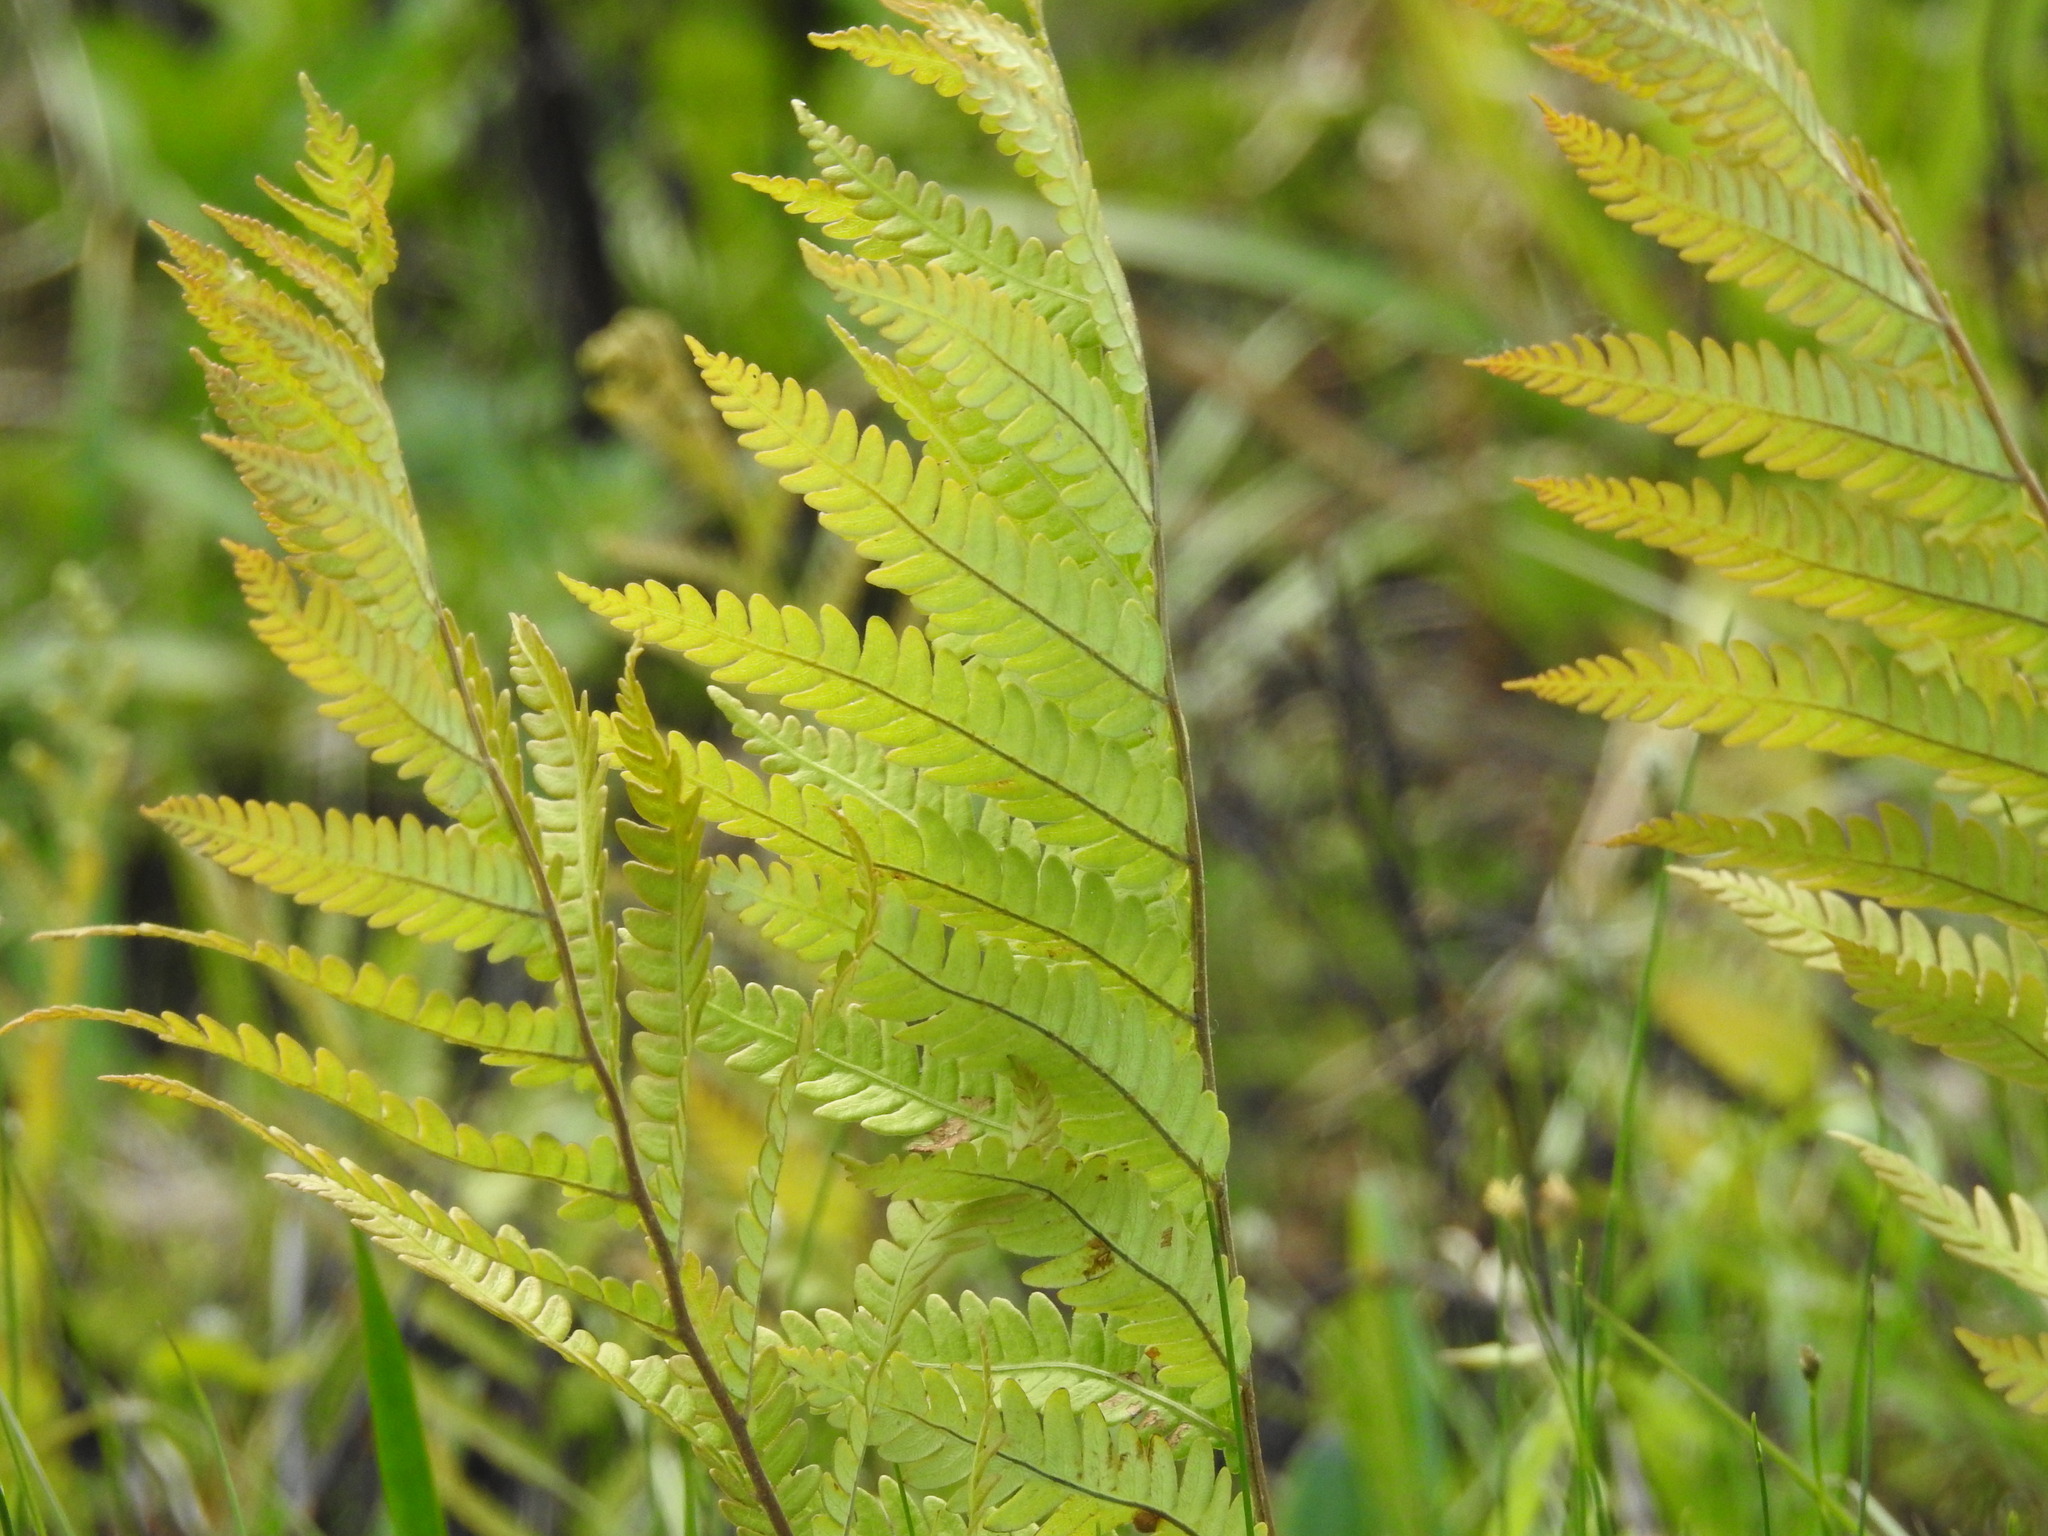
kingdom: Plantae
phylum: Tracheophyta
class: Polypodiopsida
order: Polypodiales
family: Blechnaceae
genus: Anchistea
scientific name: Anchistea virginica
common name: Virginia chain fern
